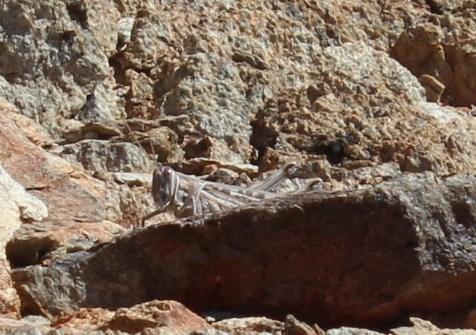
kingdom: Animalia
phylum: Arthropoda
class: Insecta
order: Orthoptera
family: Acrididae
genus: Schistocerca
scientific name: Schistocerca gregaria
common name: Desert locust
